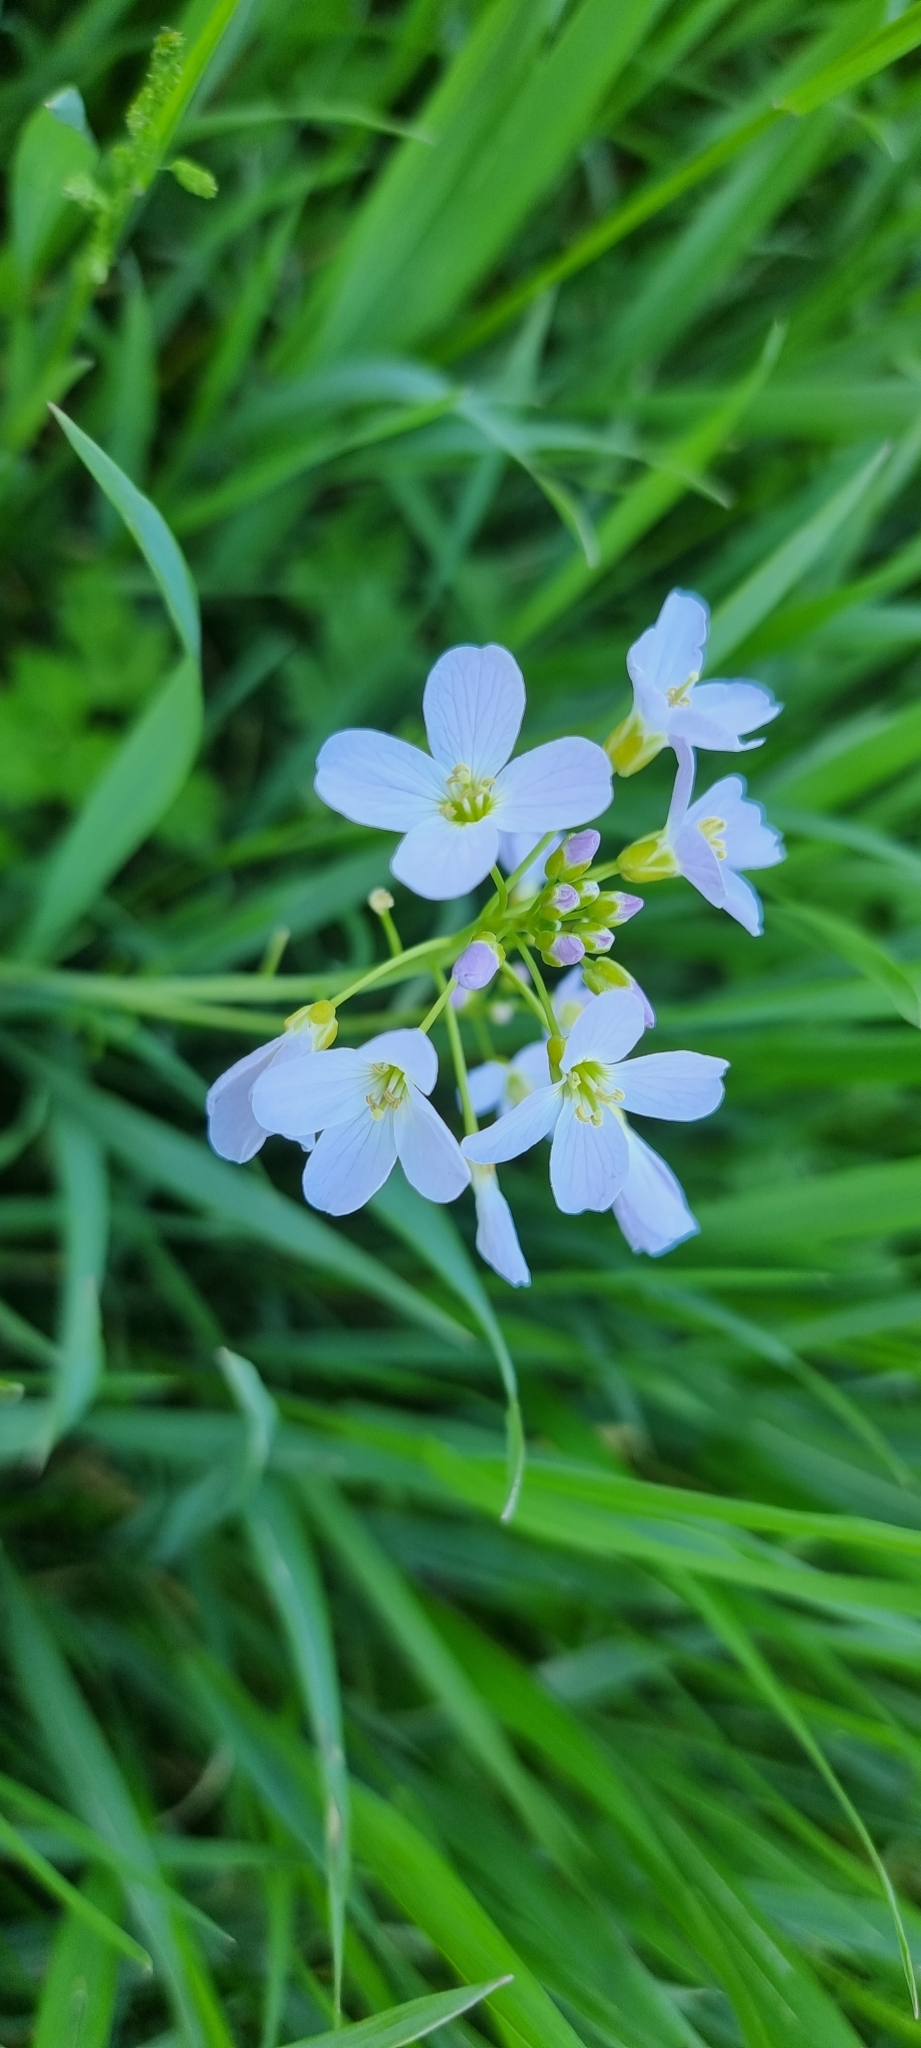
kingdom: Plantae
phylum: Tracheophyta
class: Magnoliopsida
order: Brassicales
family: Brassicaceae
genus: Cardamine
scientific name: Cardamine pratensis
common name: Cuckoo flower
